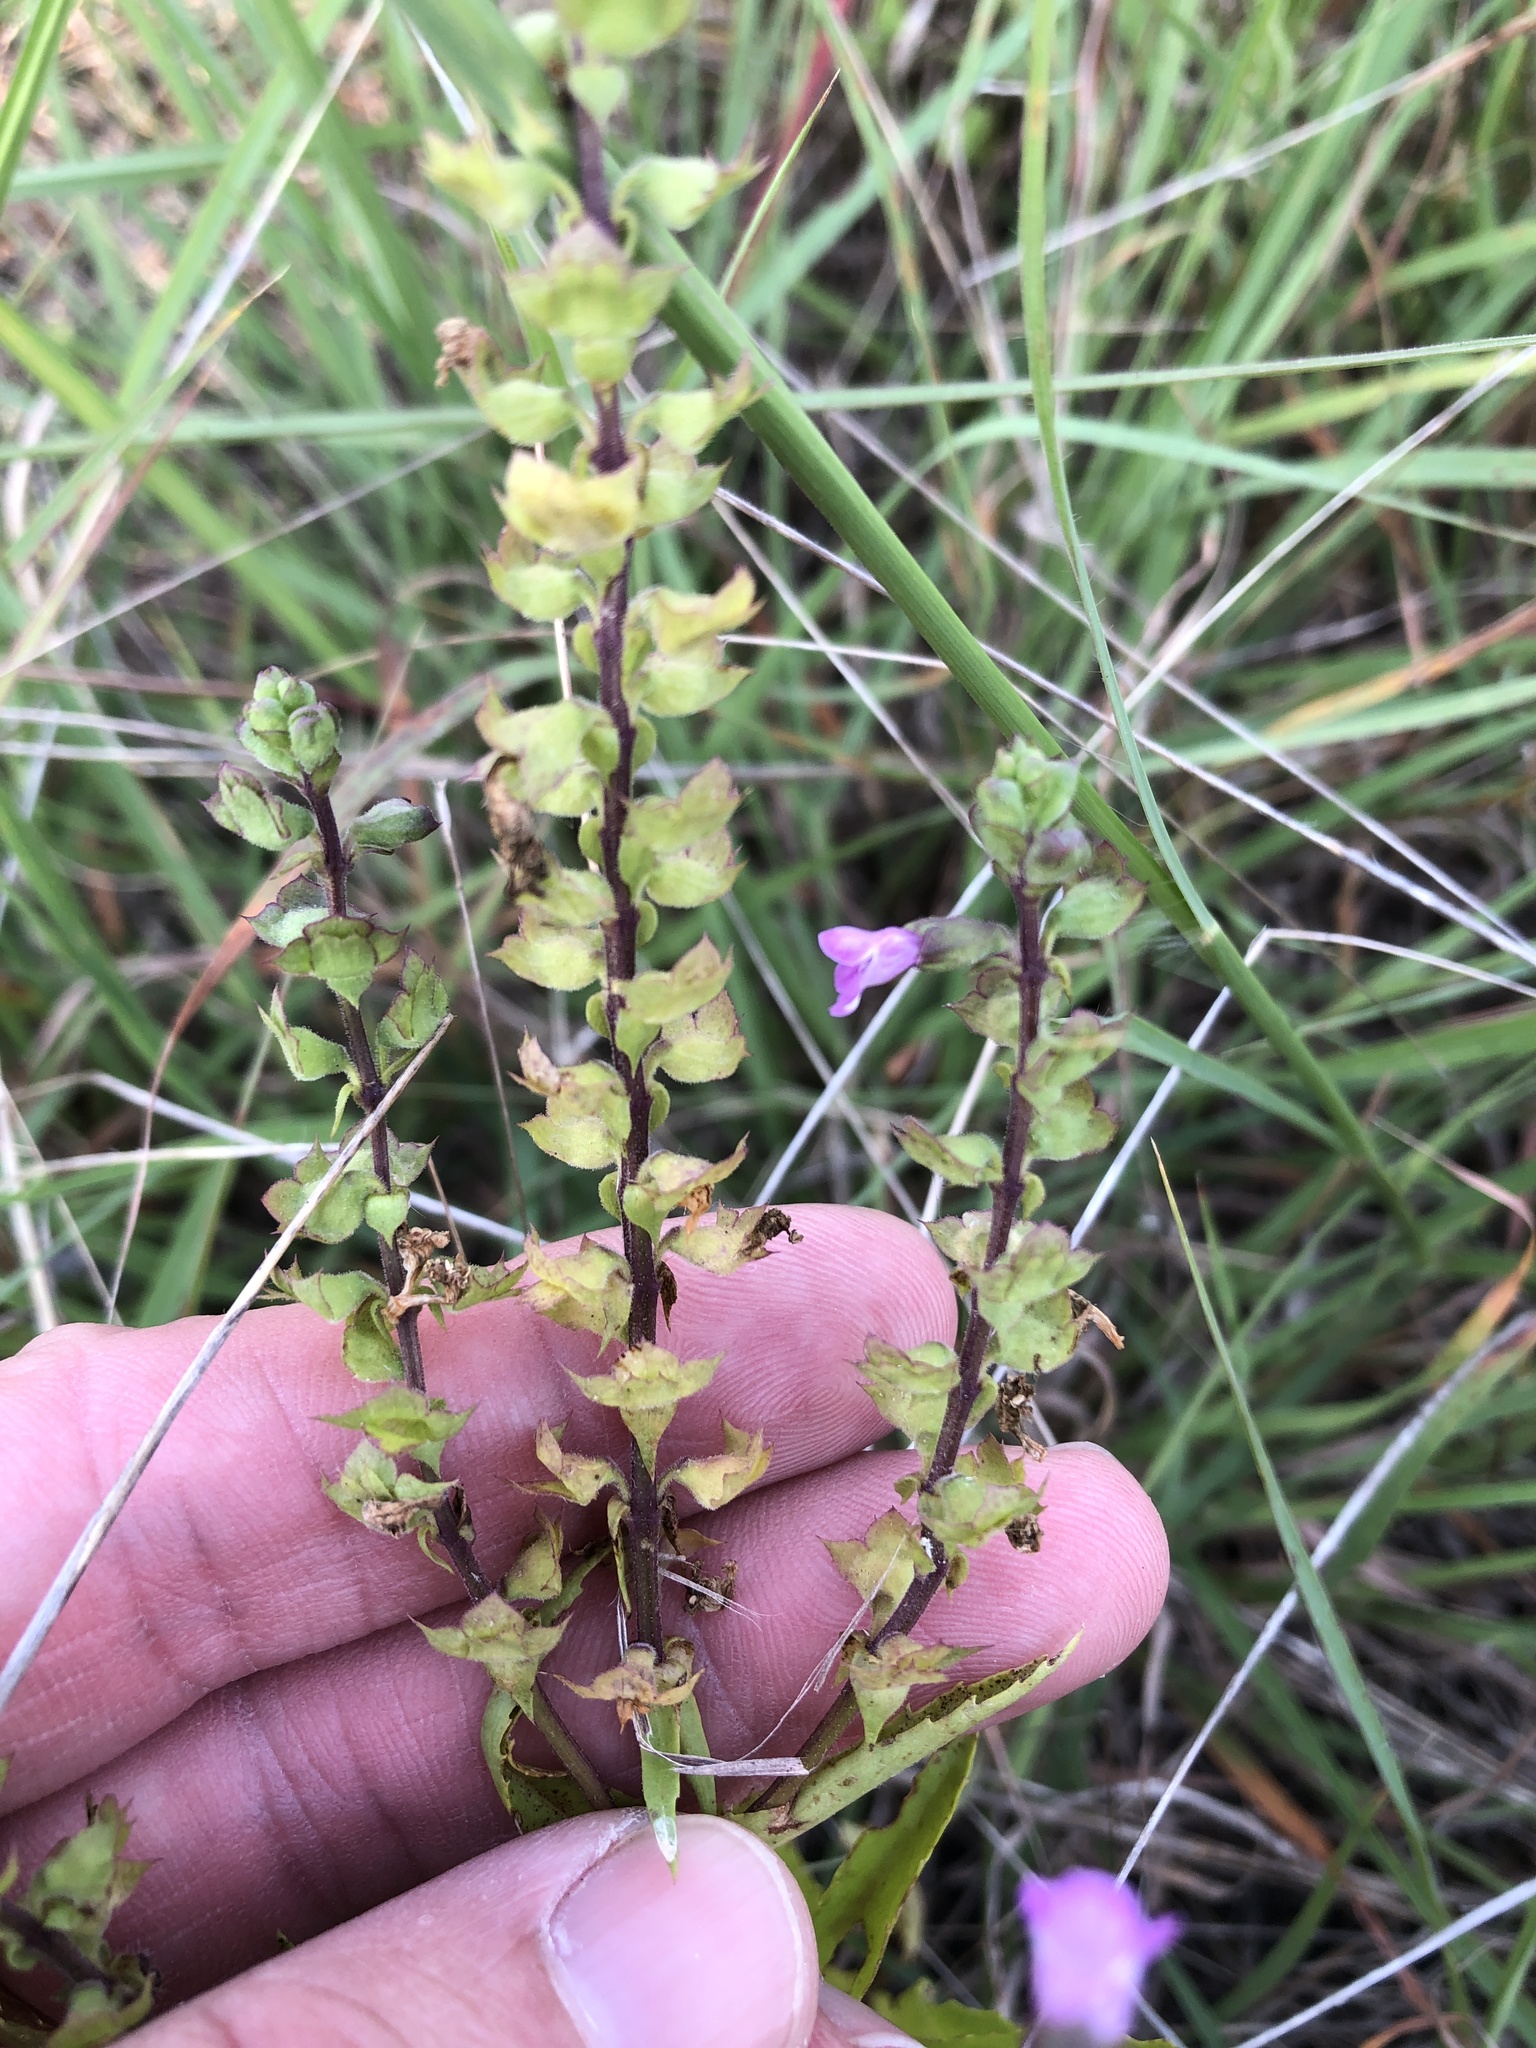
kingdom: Plantae
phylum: Tracheophyta
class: Magnoliopsida
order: Lamiales
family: Lamiaceae
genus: Warnockia
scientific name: Warnockia scutellarioides
